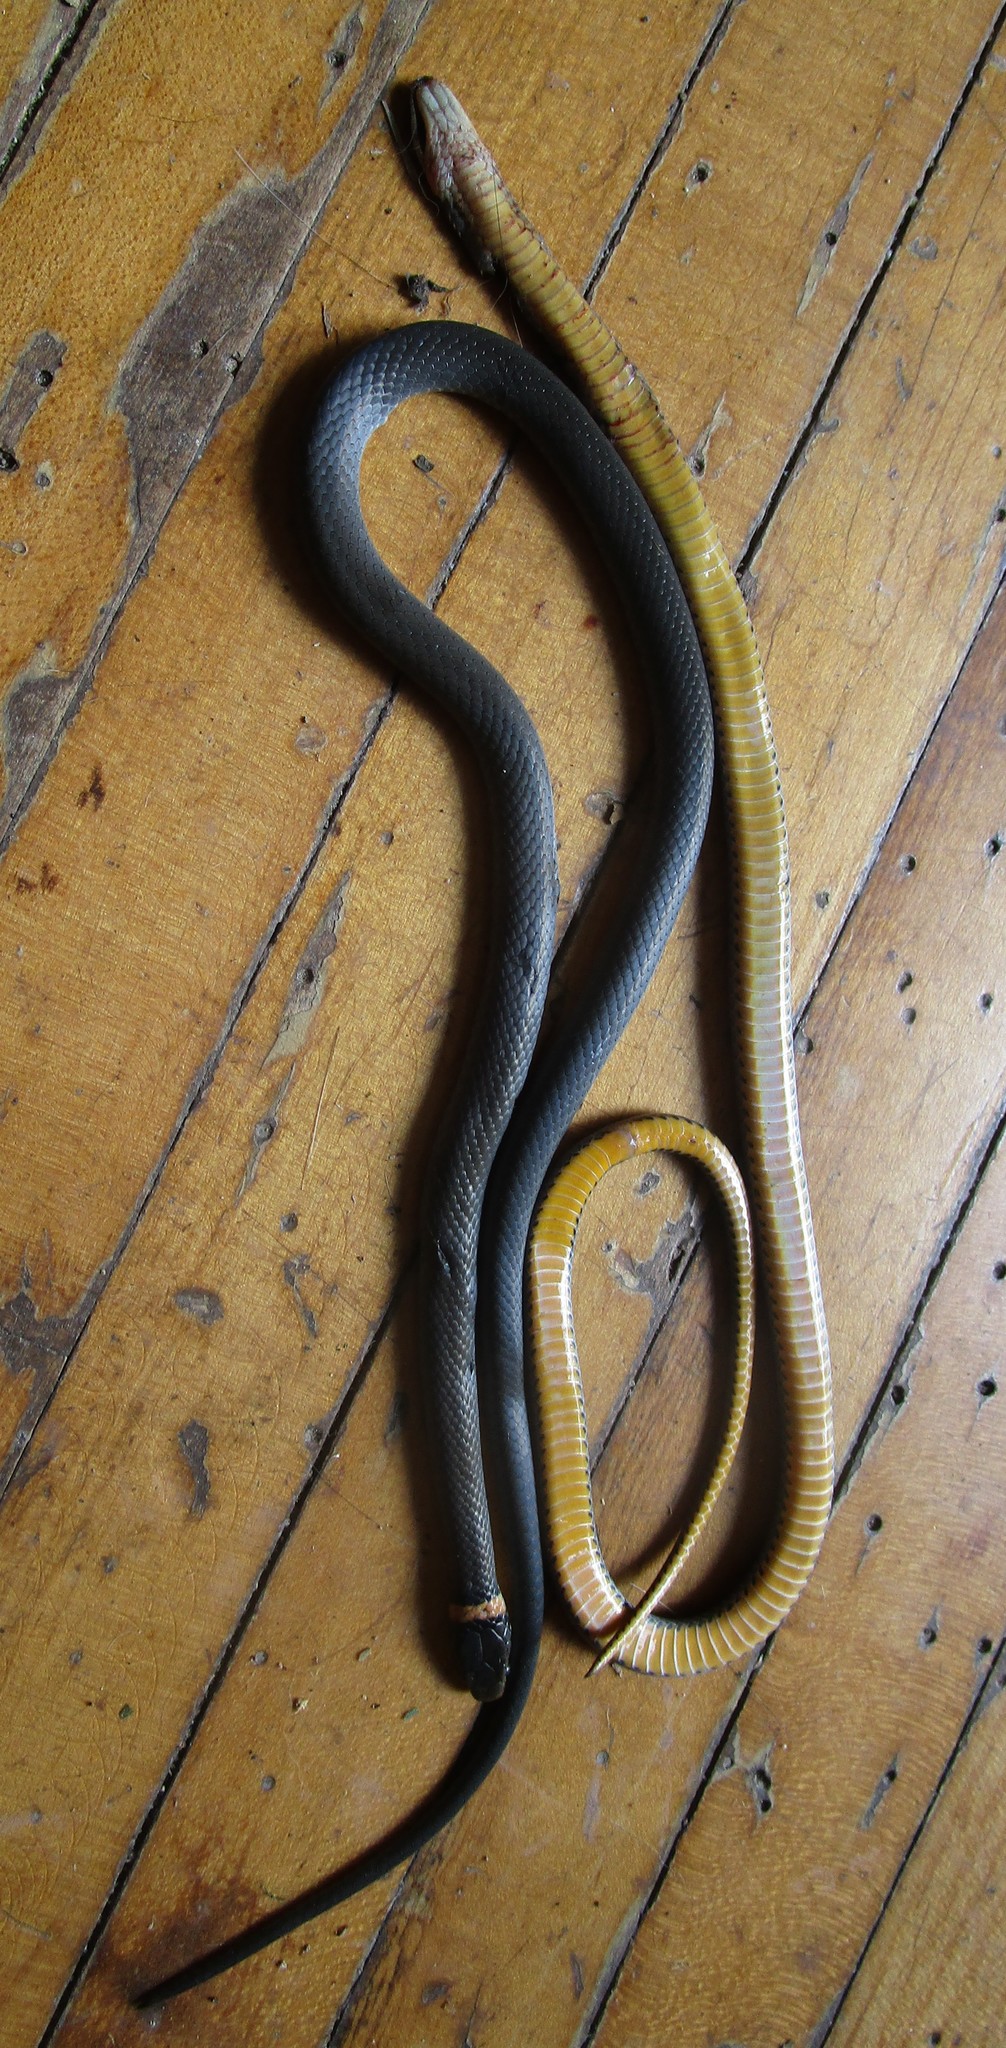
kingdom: Animalia
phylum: Chordata
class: Squamata
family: Colubridae
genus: Diadophis
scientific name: Diadophis punctatus
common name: Ringneck snake
